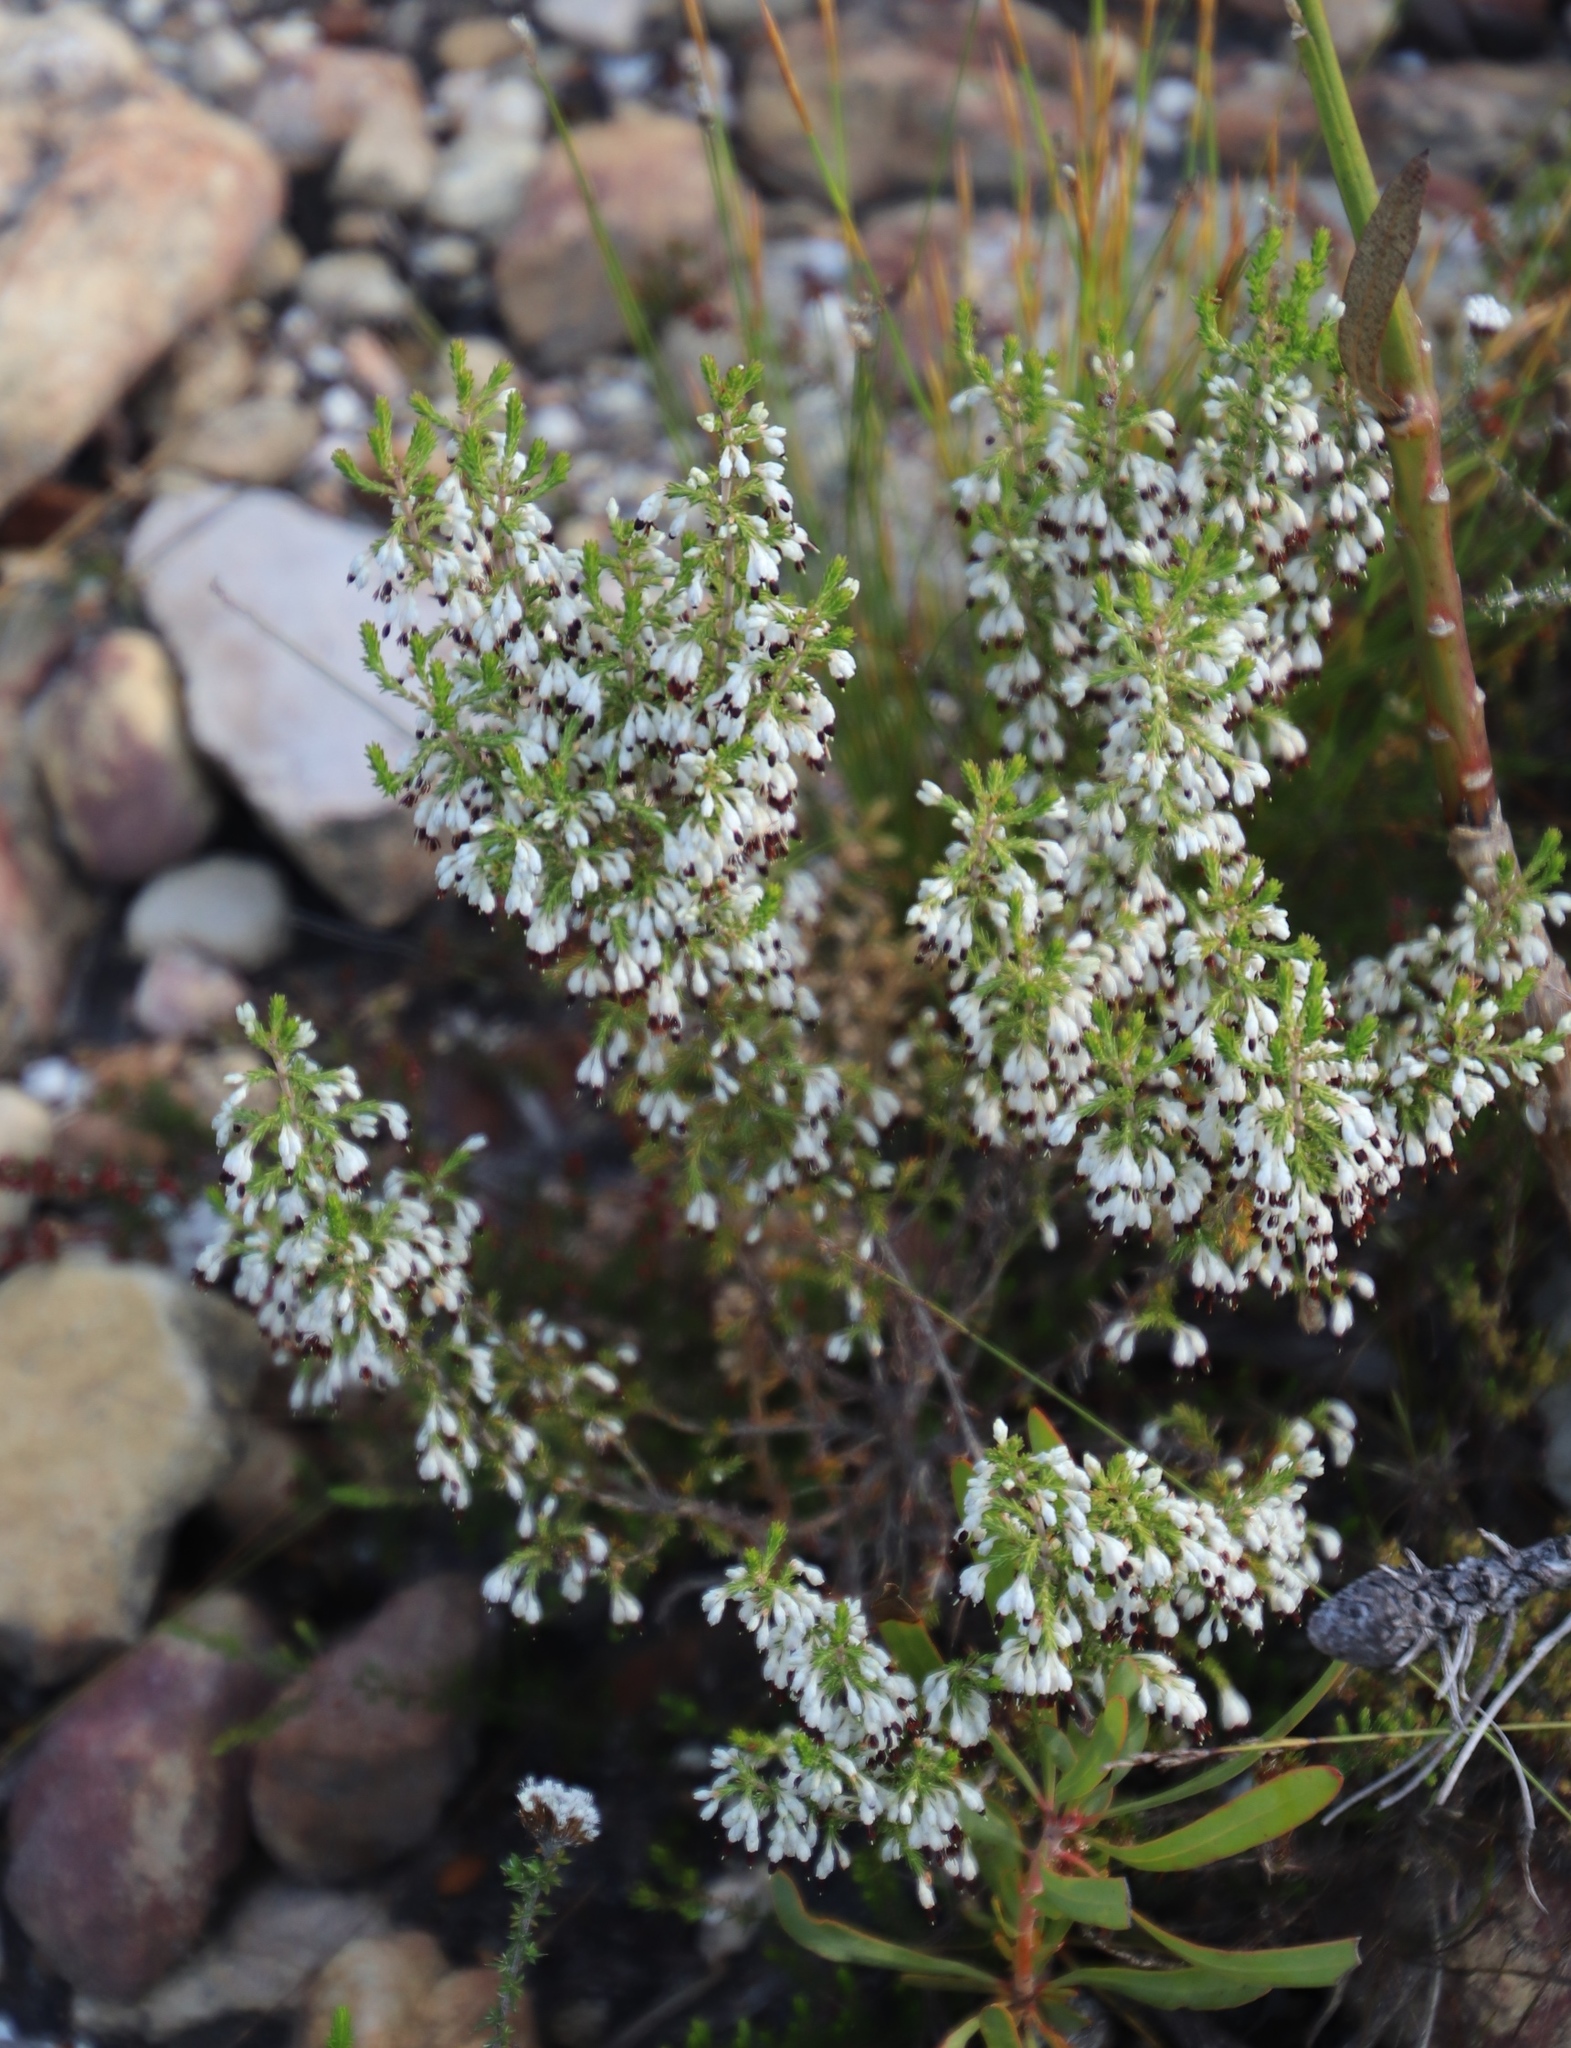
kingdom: Plantae
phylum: Tracheophyta
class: Magnoliopsida
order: Ericales
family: Ericaceae
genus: Erica
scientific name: Erica imbricata
